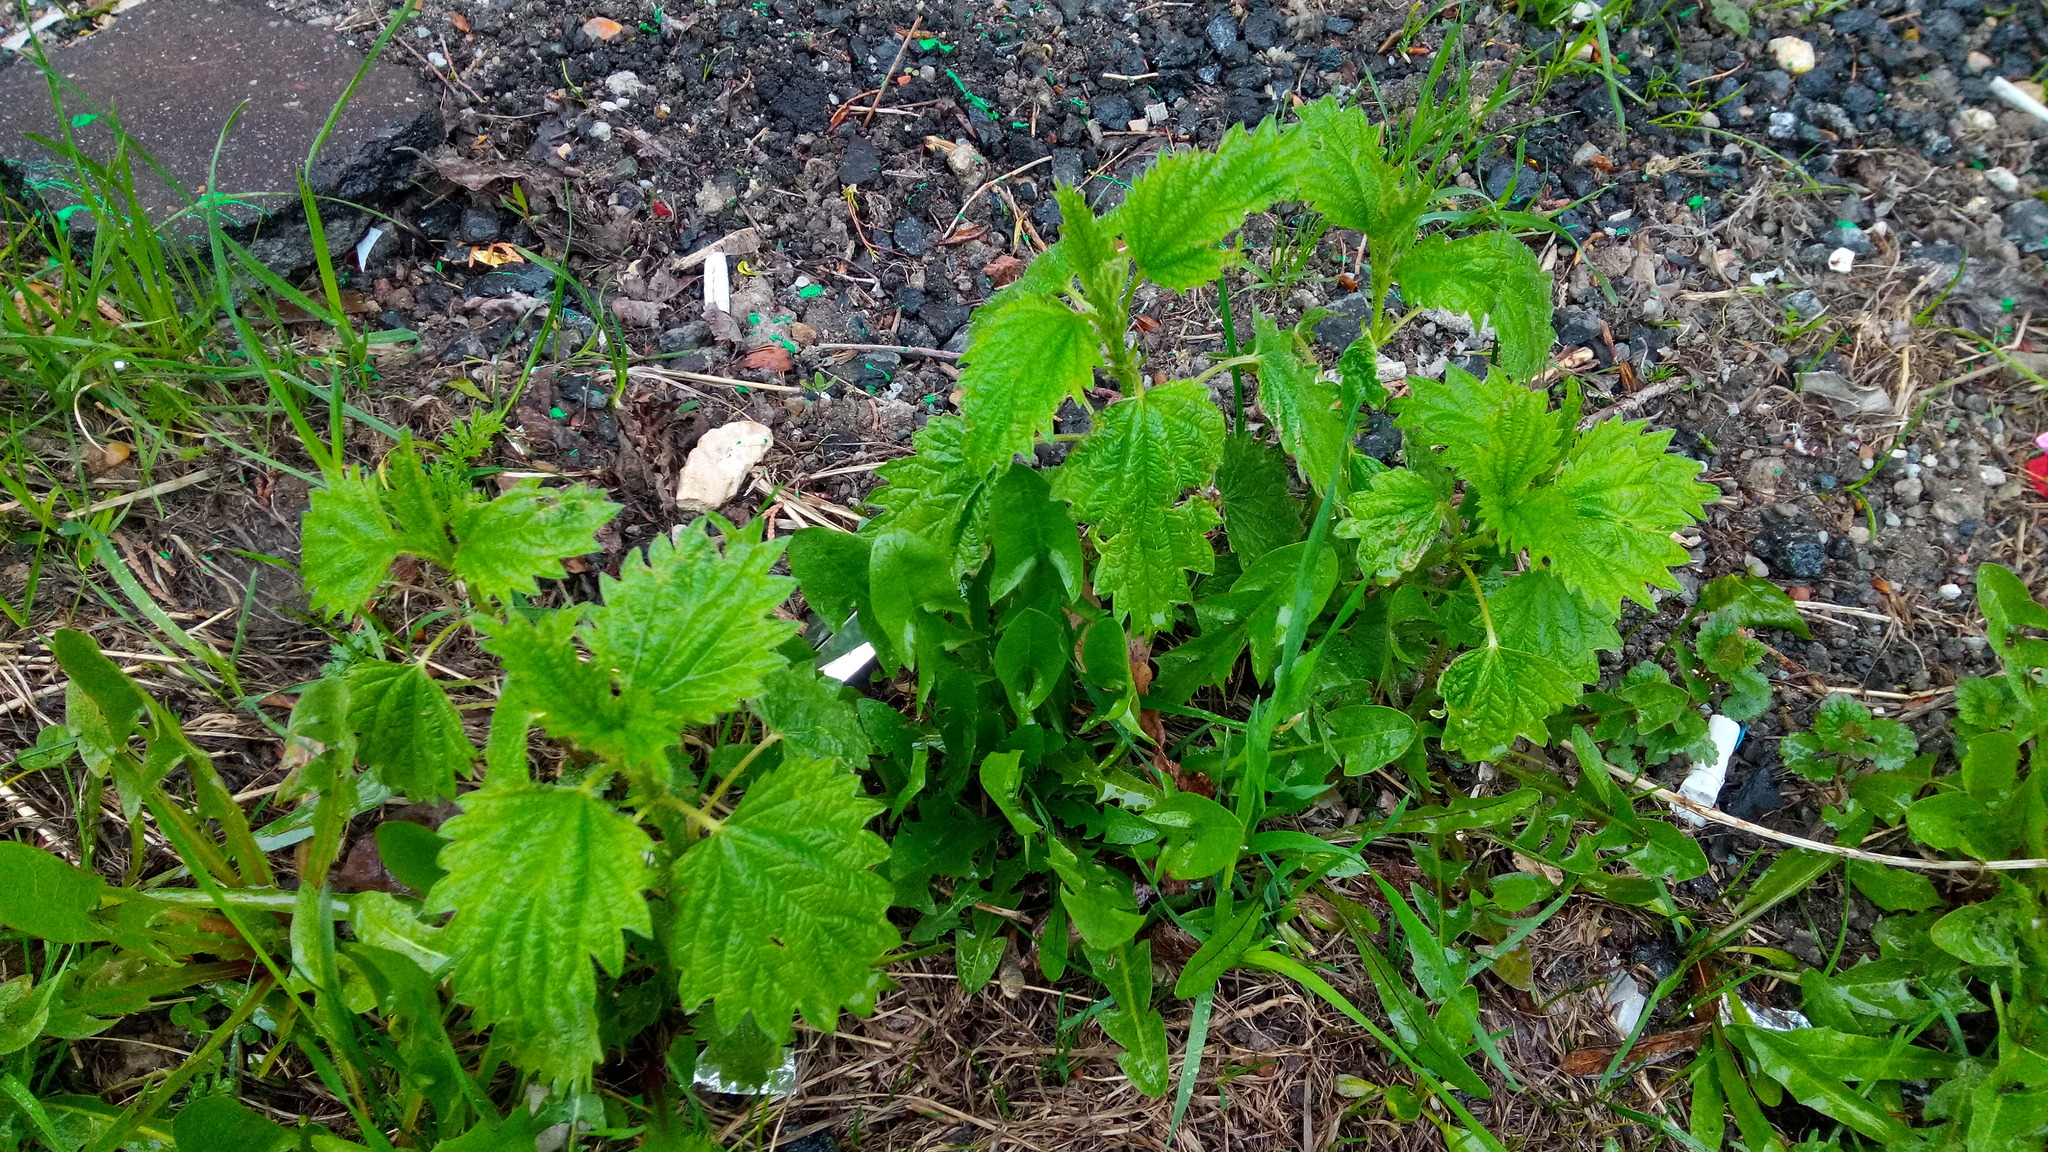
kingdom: Plantae
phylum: Tracheophyta
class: Magnoliopsida
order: Rosales
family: Urticaceae
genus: Urtica
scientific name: Urtica dioica
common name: Common nettle
